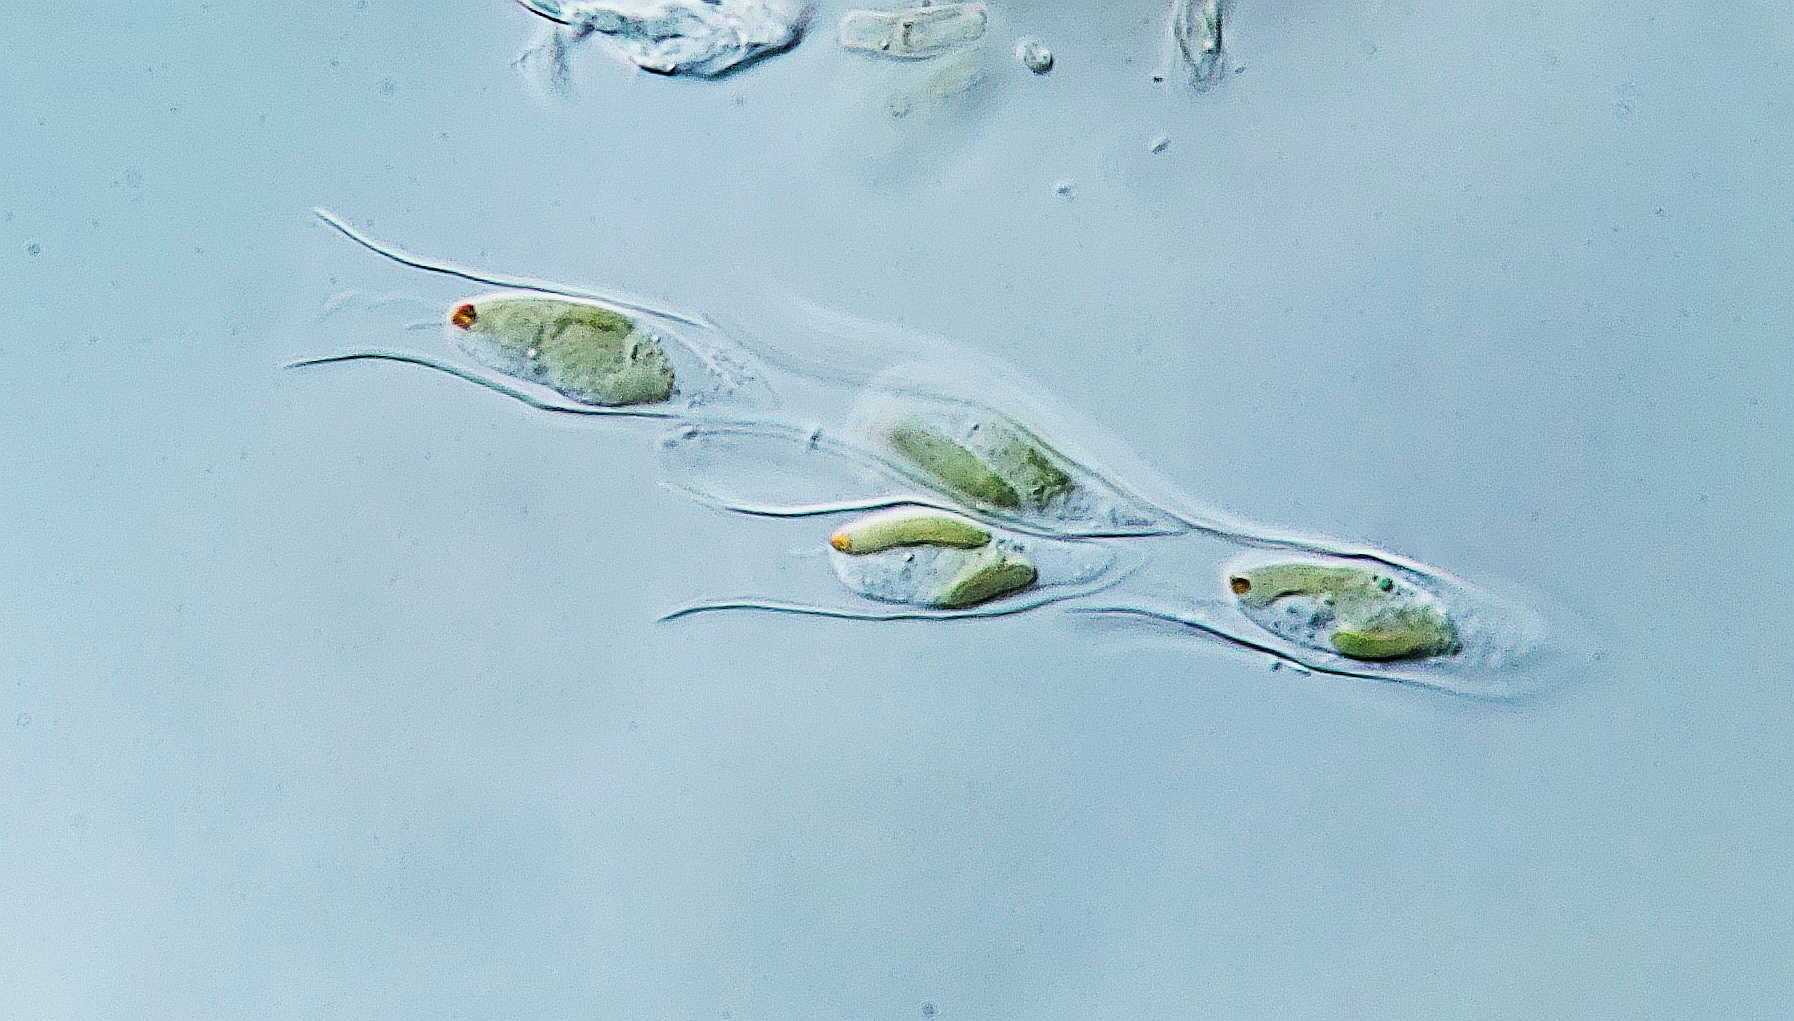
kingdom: Chromista
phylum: Ochrophyta
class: Chrysophyceae
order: Chromulinales
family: Dinobryaceae
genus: Dinobryon
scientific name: Dinobryon sertularia
